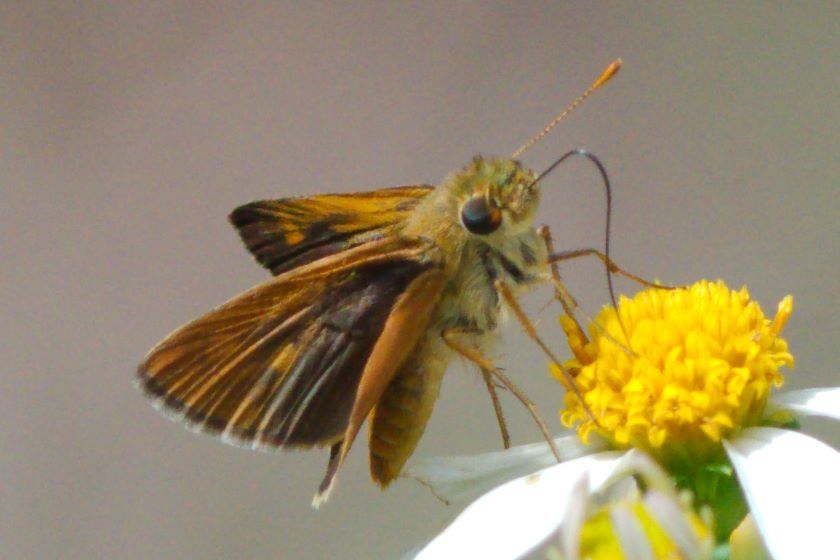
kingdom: Animalia
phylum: Arthropoda
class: Insecta
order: Lepidoptera
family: Hesperiidae
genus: Polites
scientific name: Polites otho
